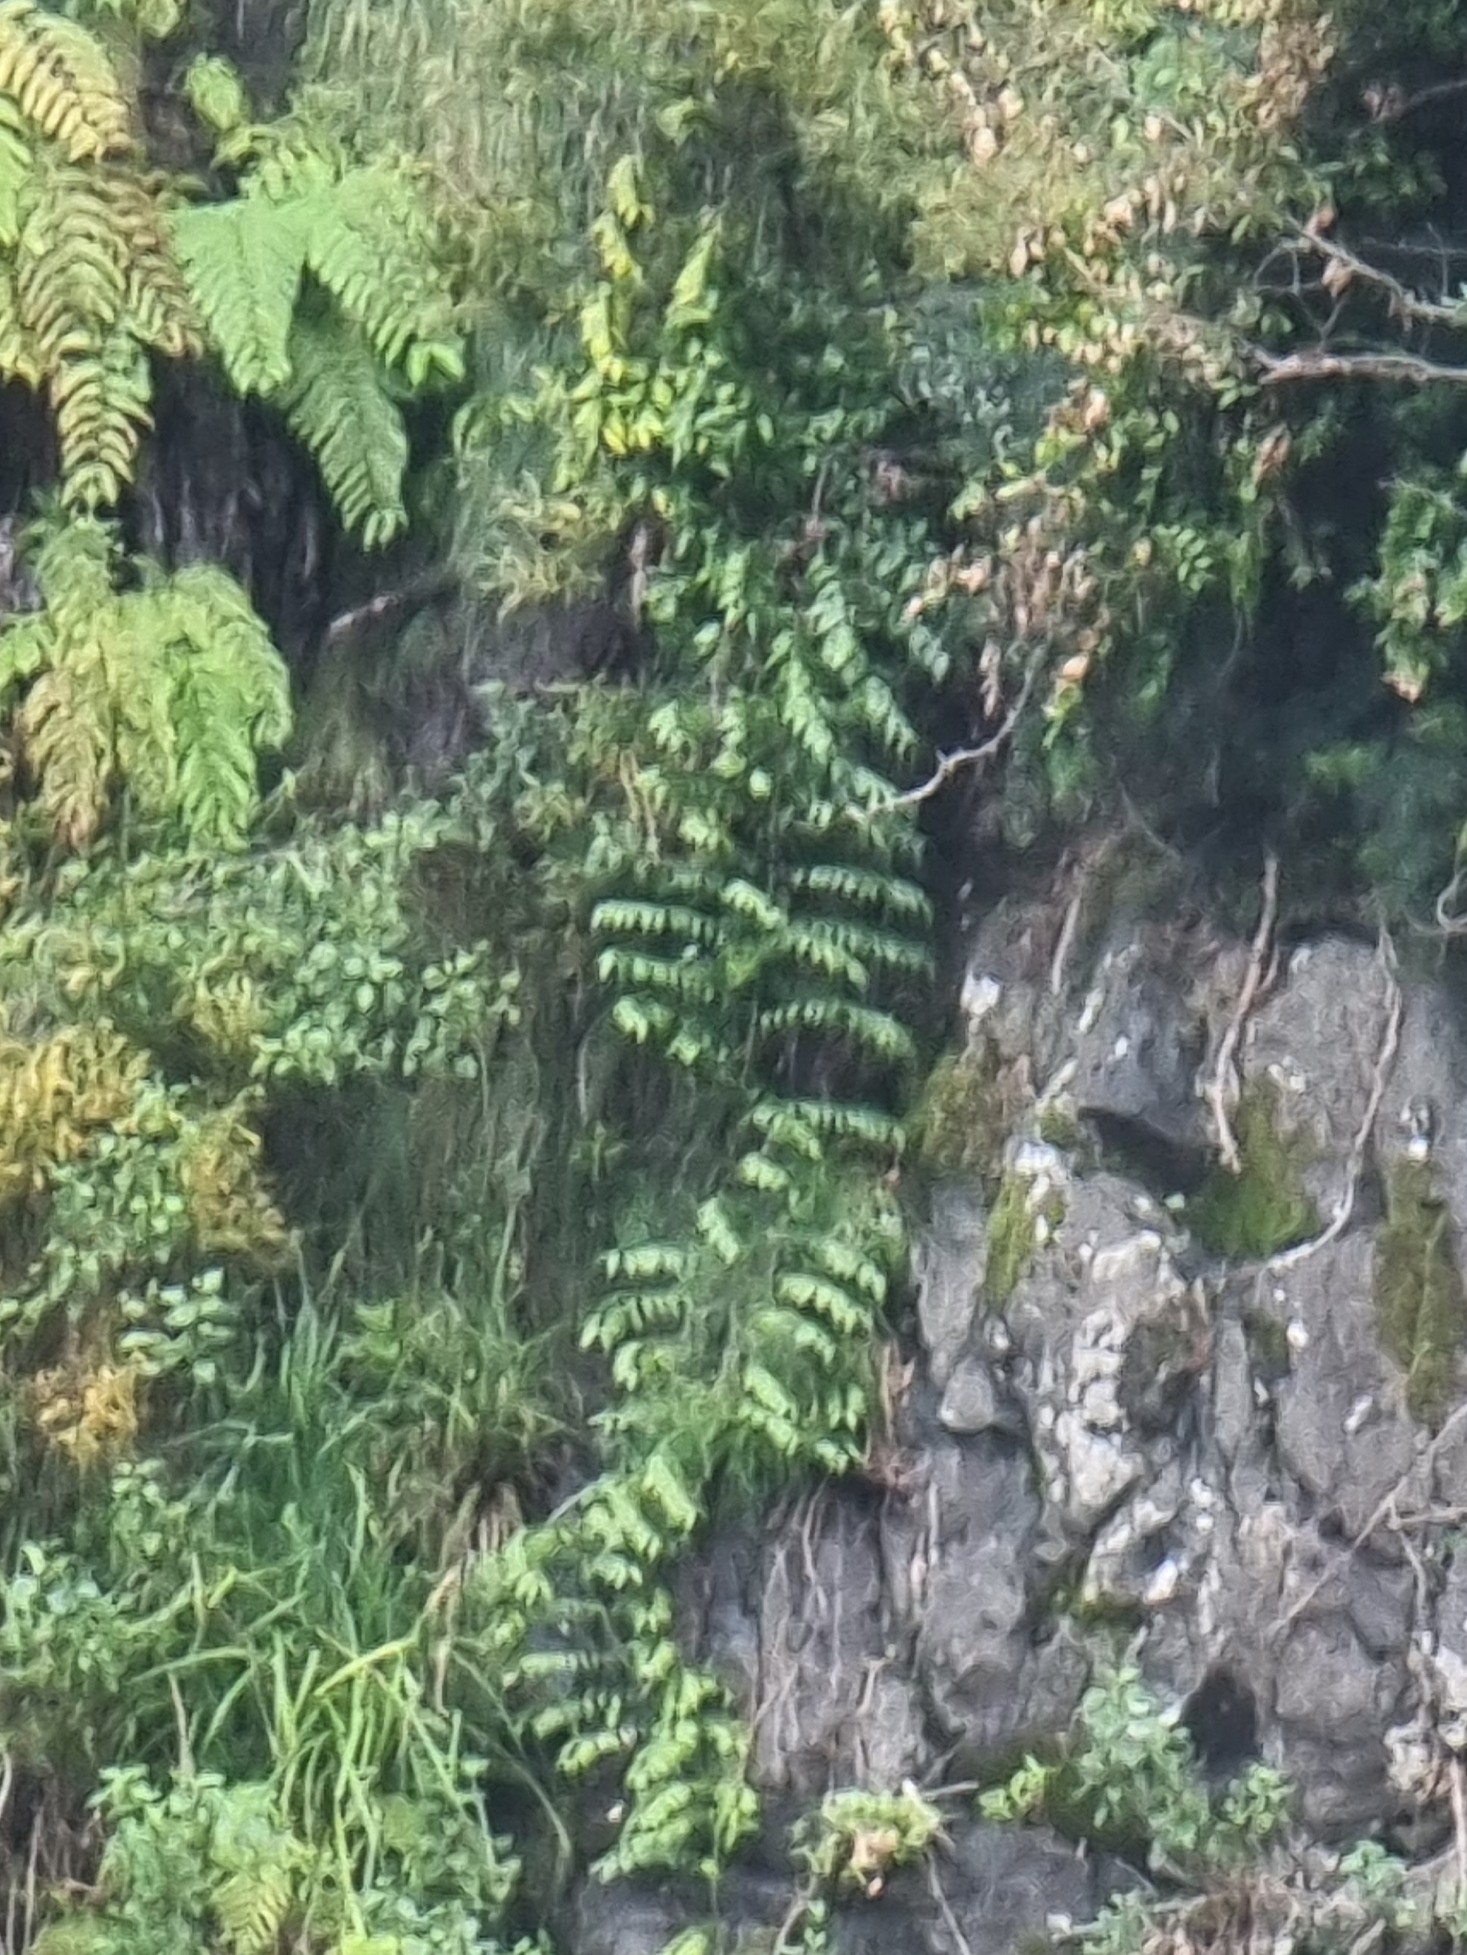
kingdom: Plantae
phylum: Tracheophyta
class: Liliopsida
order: Asparagales
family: Asparagaceae
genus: Semele
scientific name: Semele androgyna
